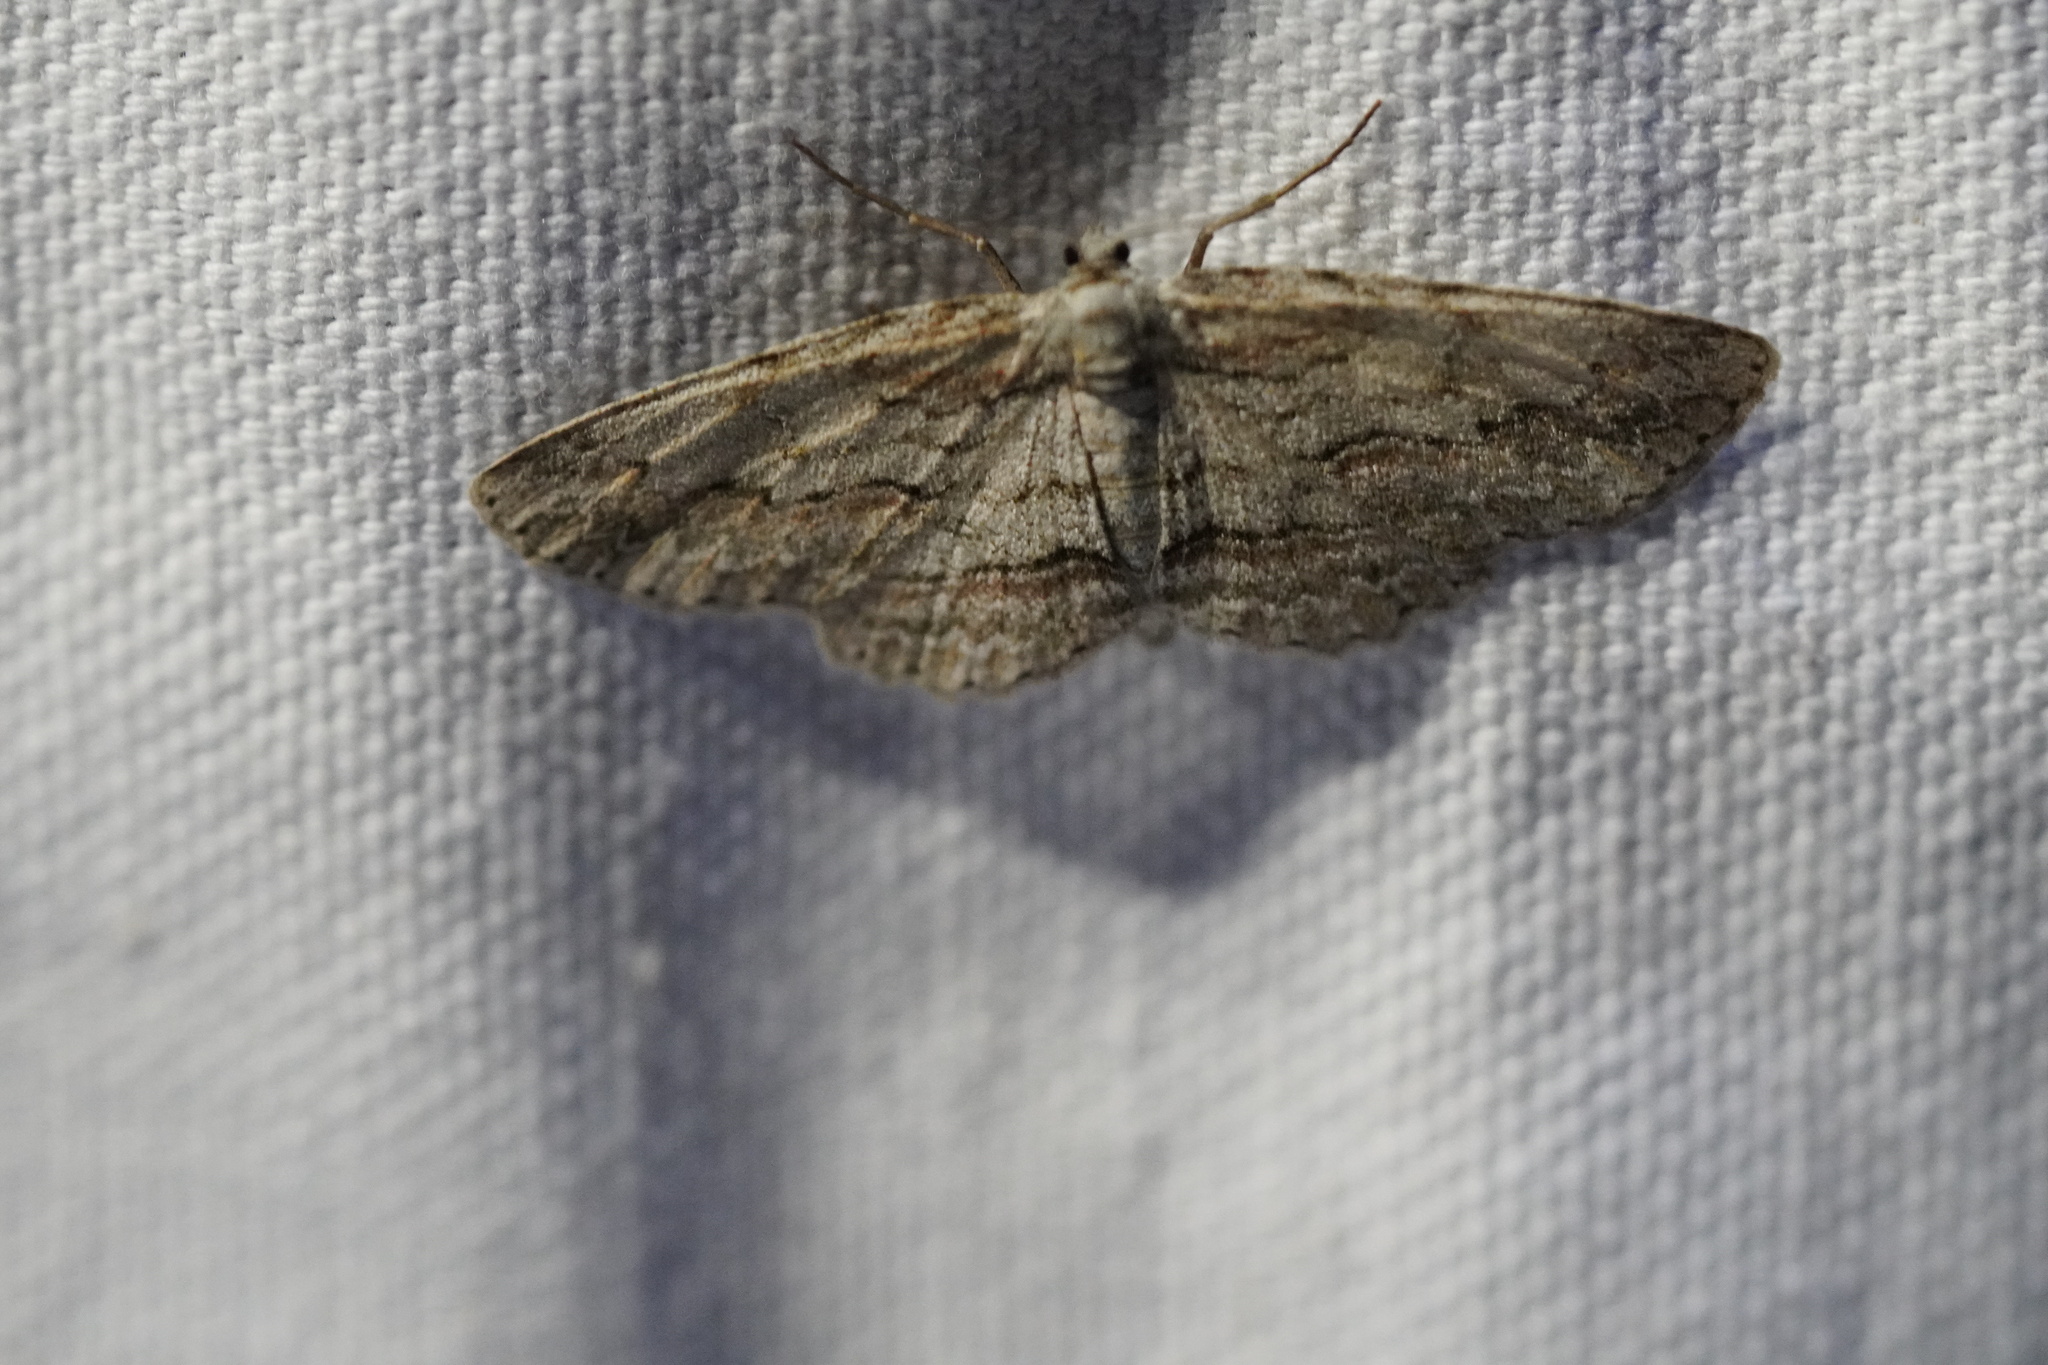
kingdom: Animalia
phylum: Arthropoda
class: Insecta
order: Lepidoptera
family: Geometridae
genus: Iridopsis
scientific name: Iridopsis defectaria
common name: Brown-shaded gray
